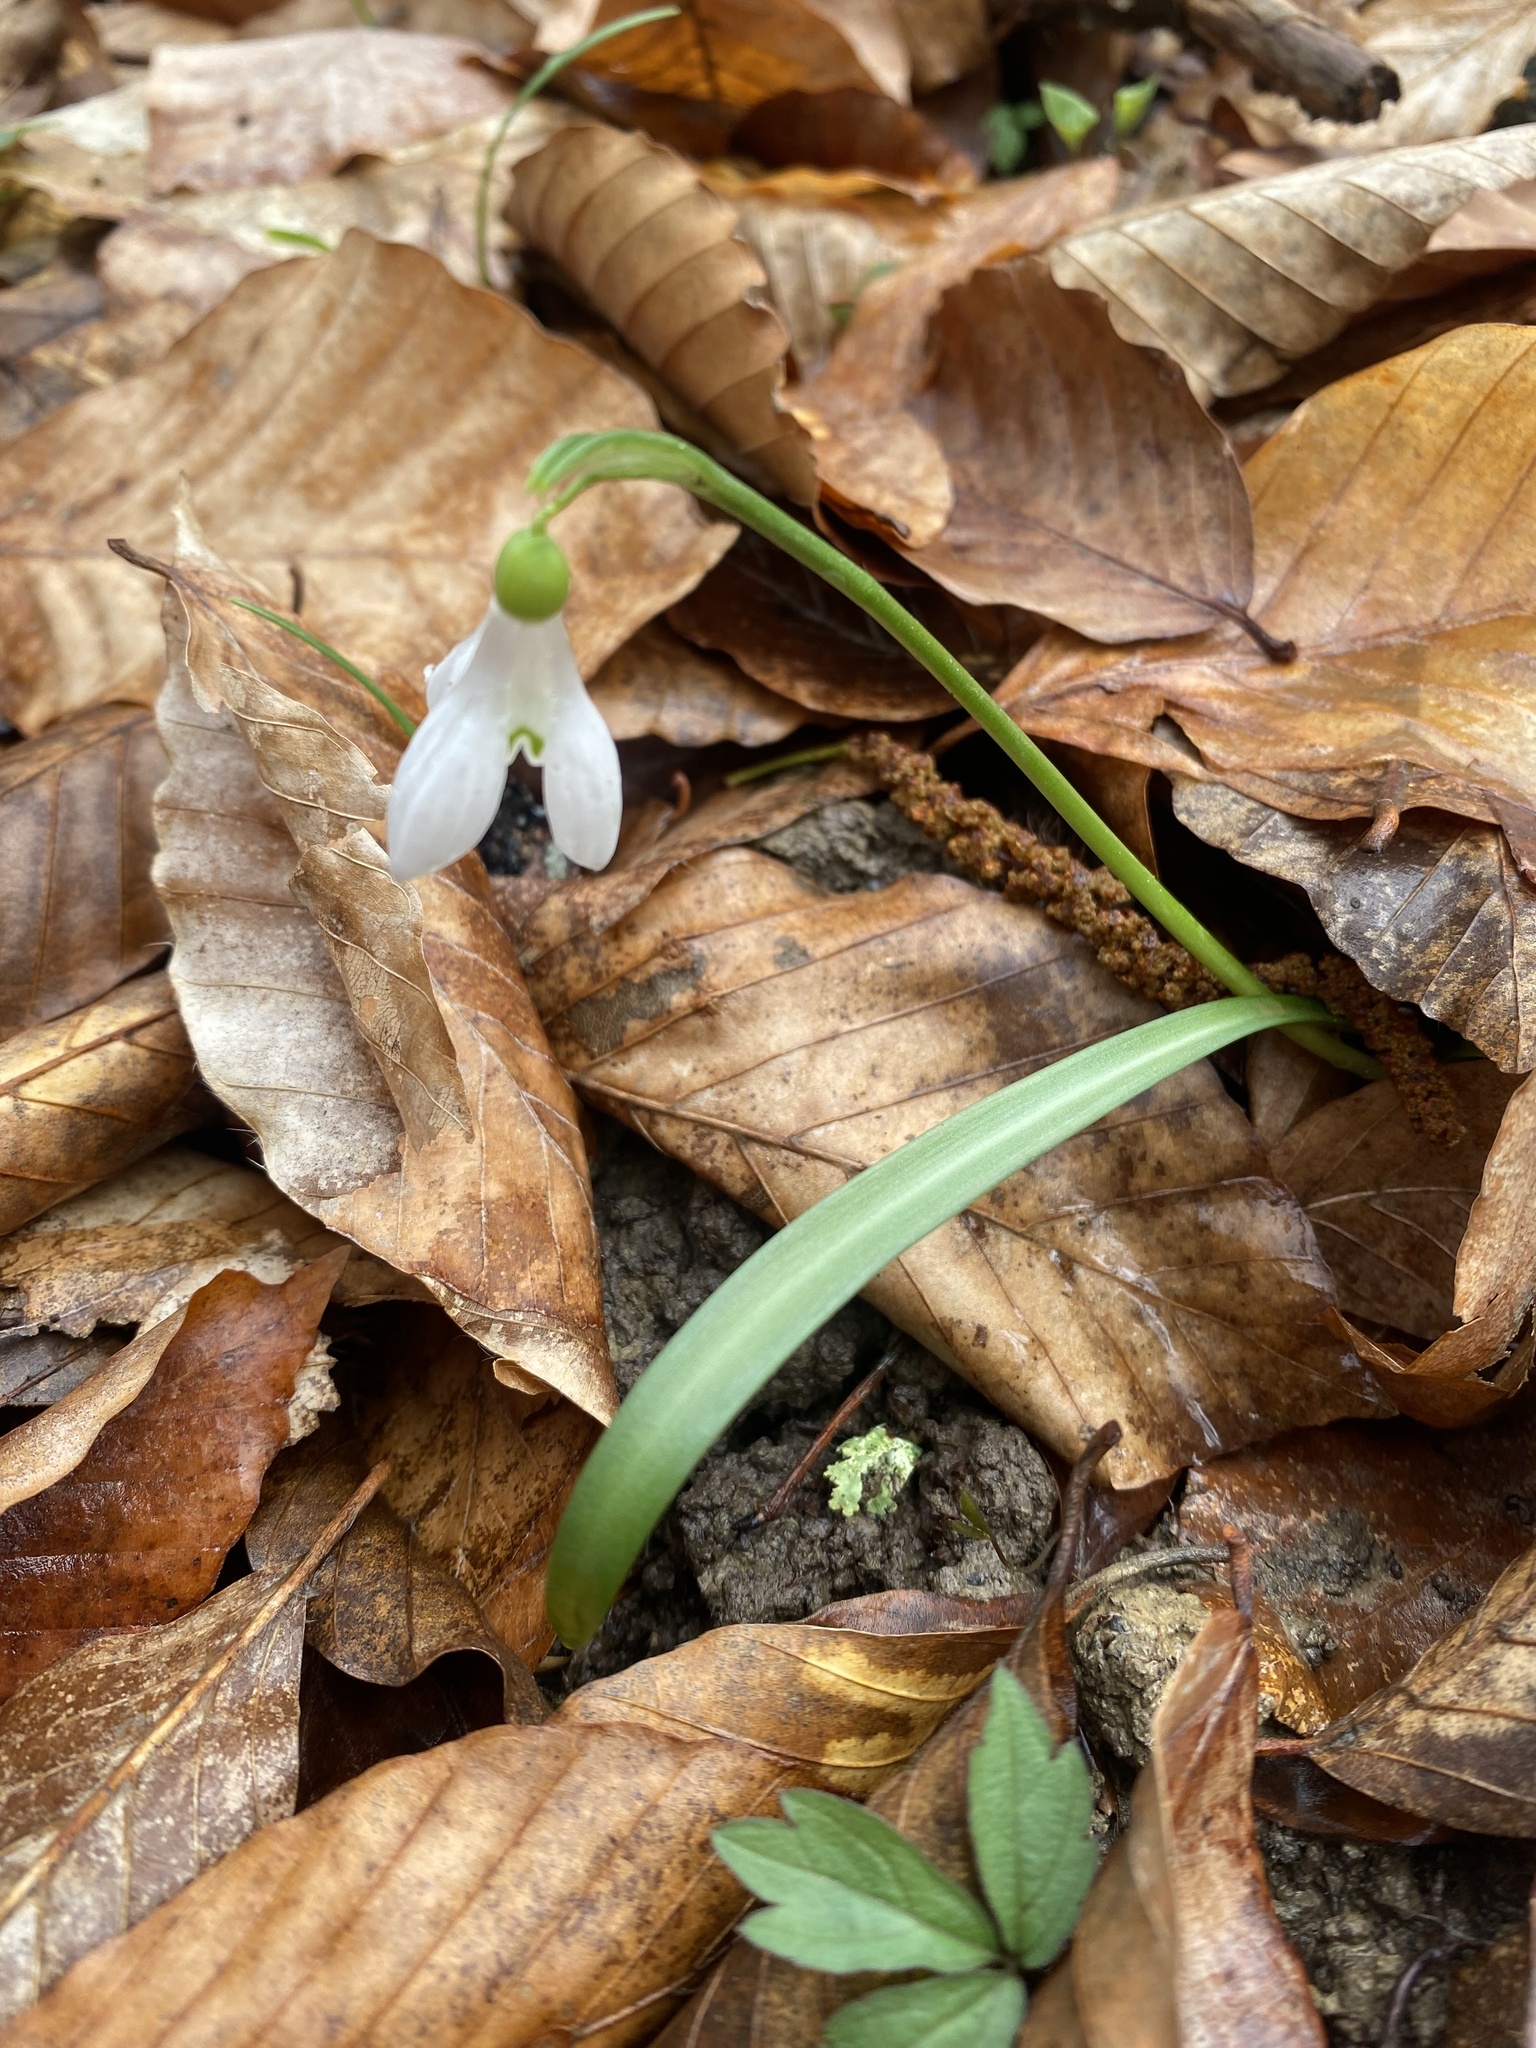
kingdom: Plantae
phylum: Tracheophyta
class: Liliopsida
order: Asparagales
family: Amaryllidaceae
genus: Galanthus
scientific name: Galanthus rizehensis
